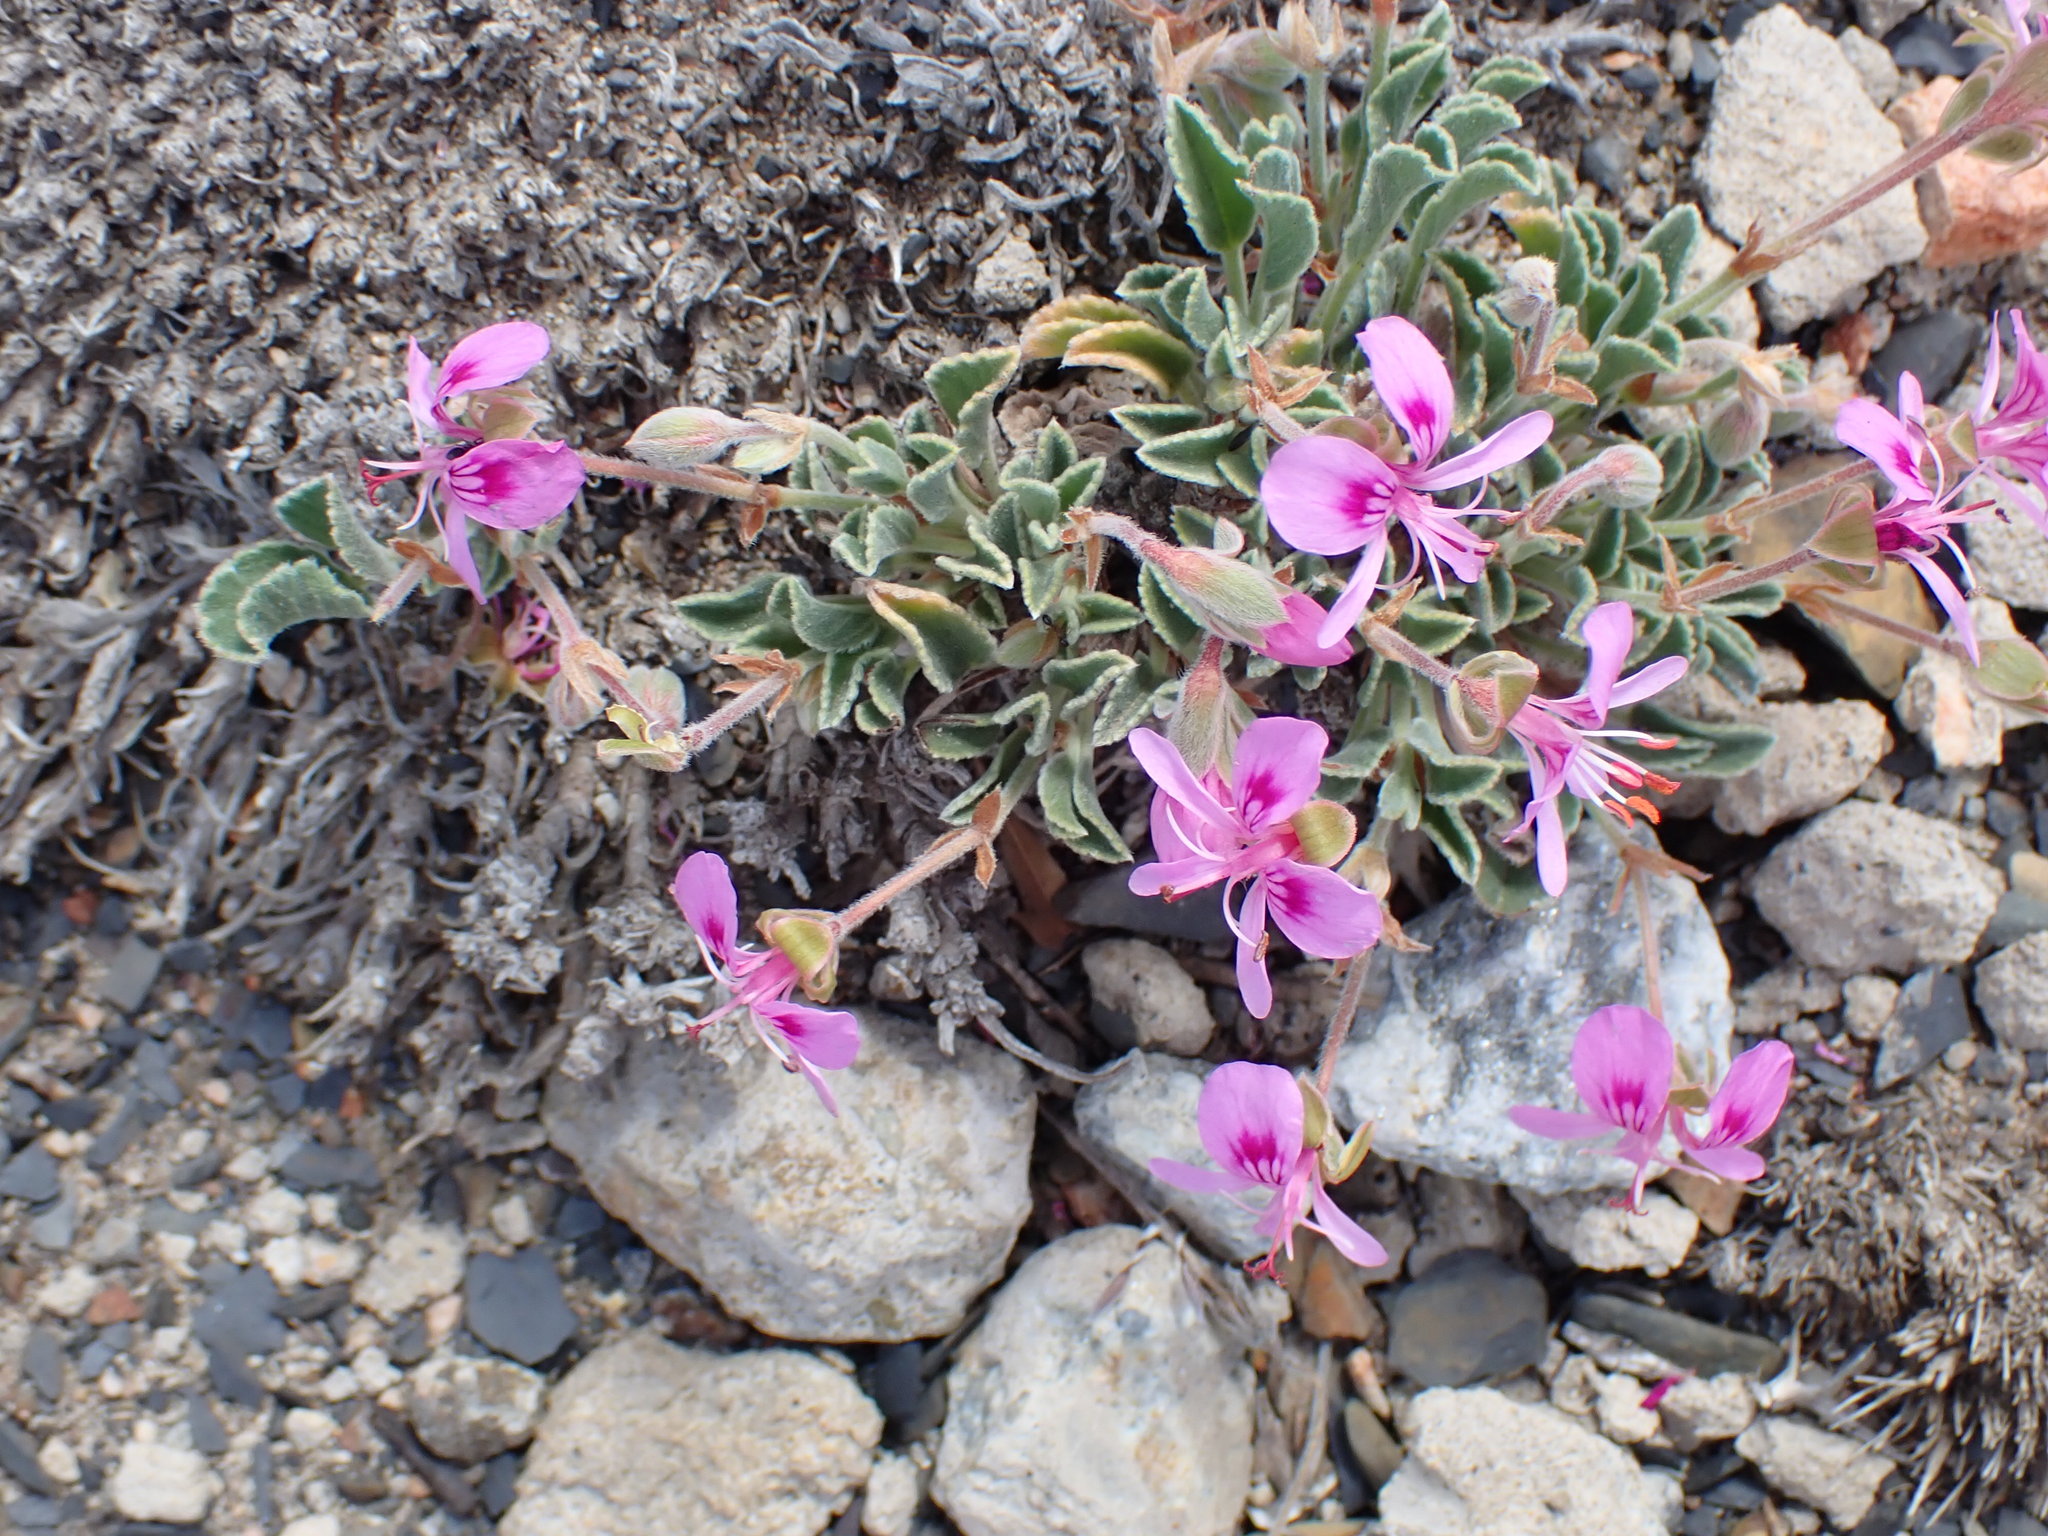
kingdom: Plantae
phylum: Tracheophyta
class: Magnoliopsida
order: Geraniales
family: Geraniaceae
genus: Pelargonium
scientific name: Pelargonium ovale
